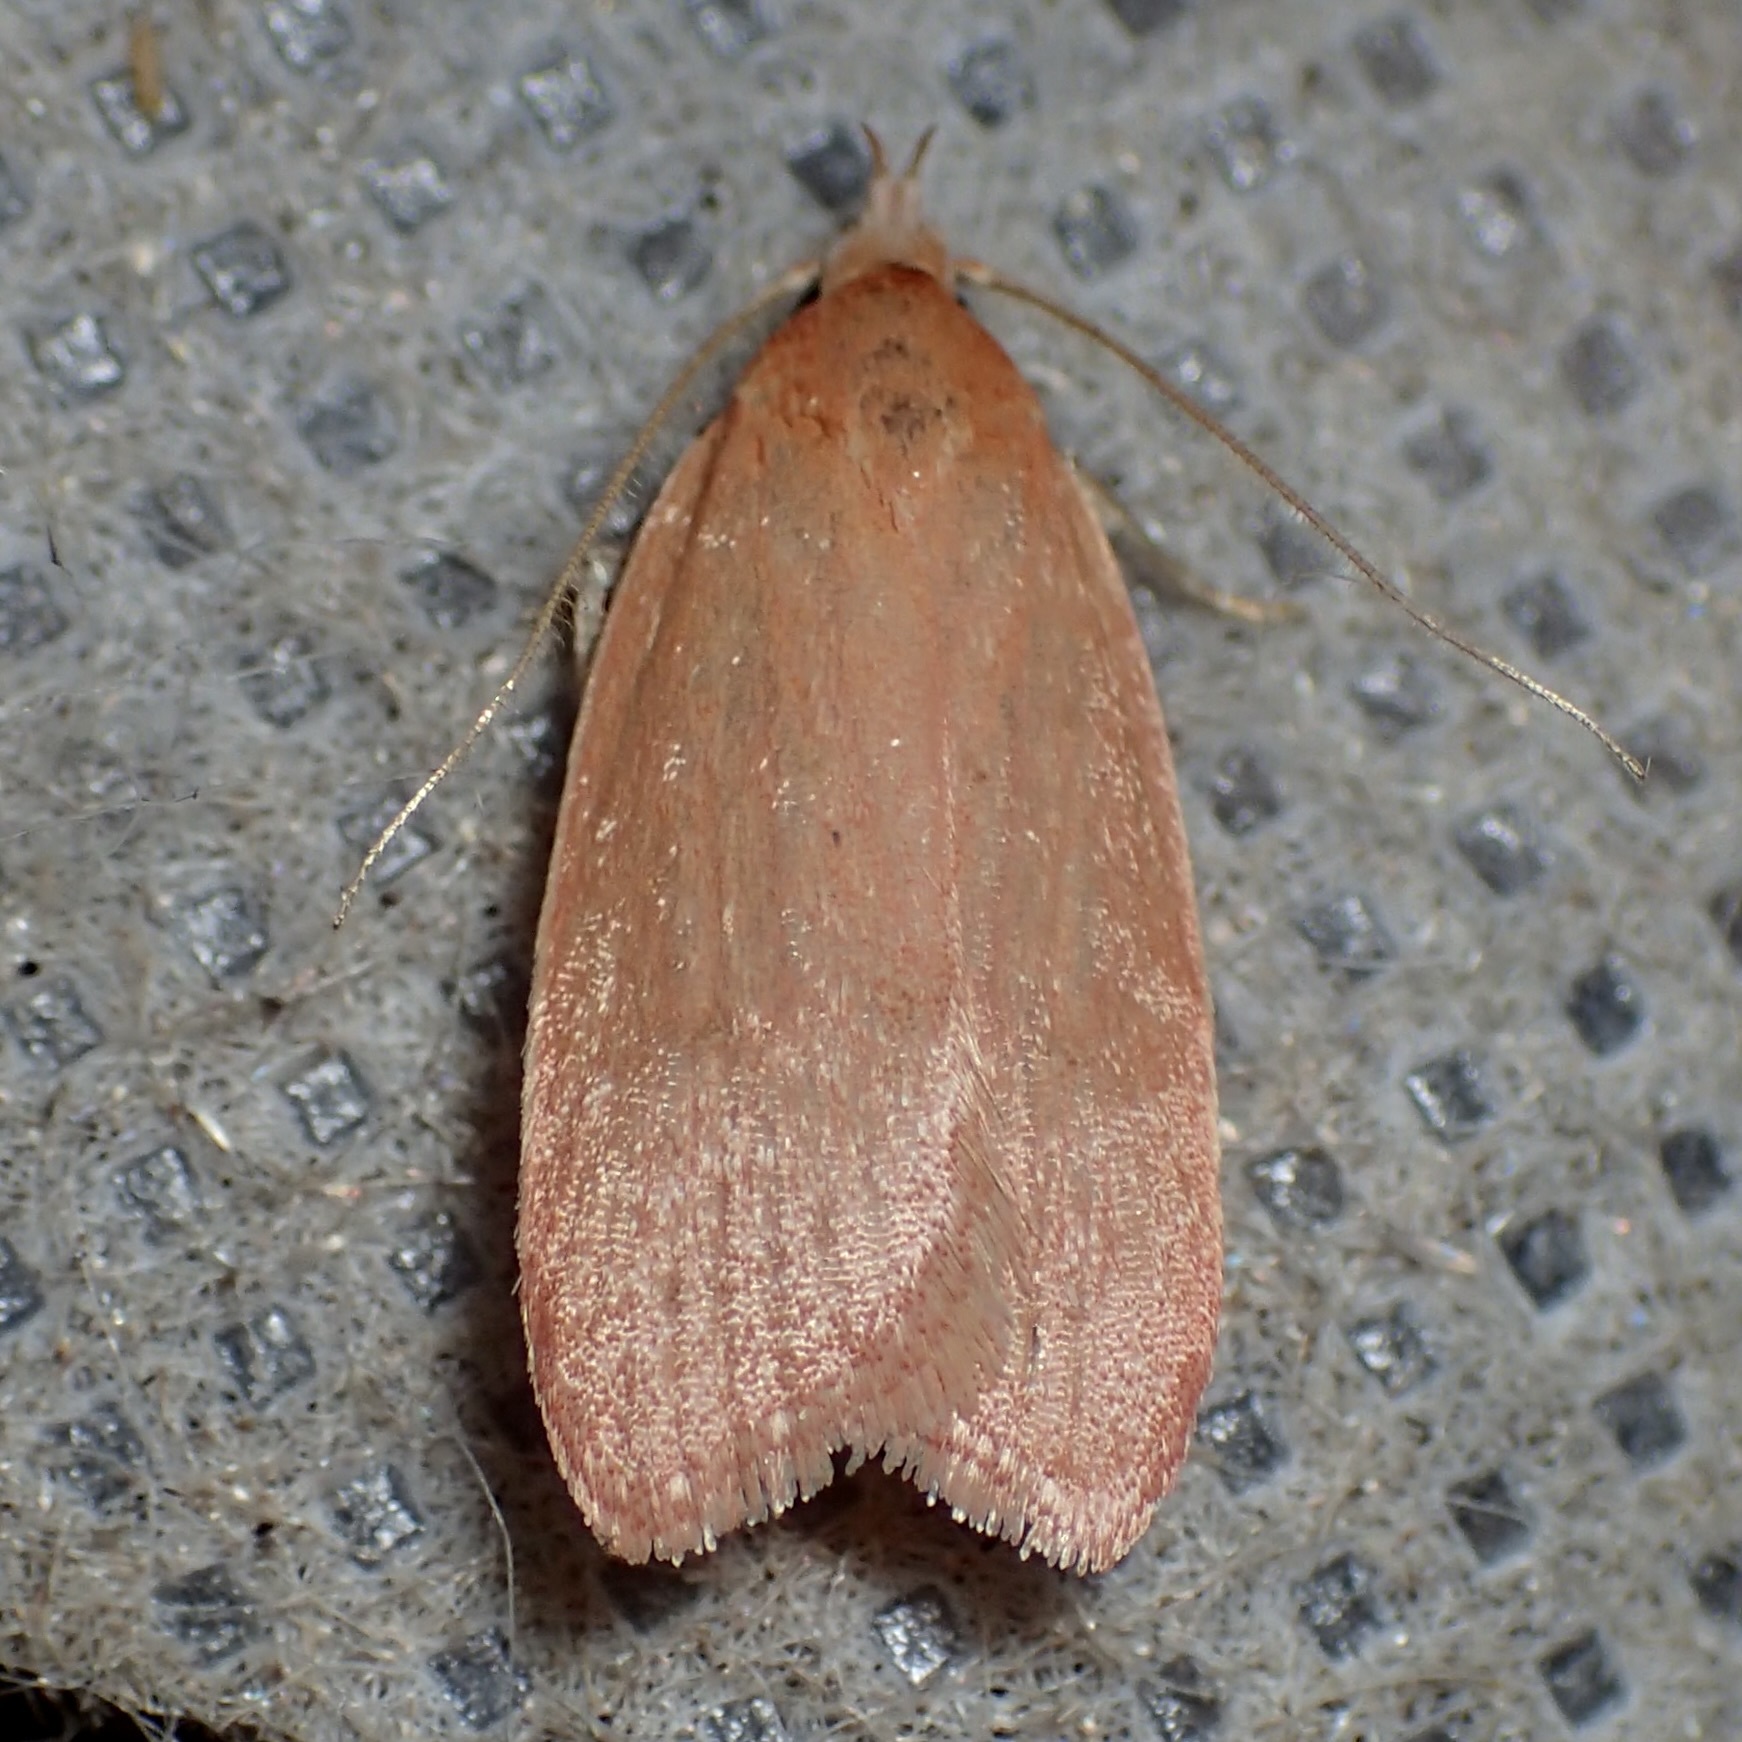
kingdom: Animalia
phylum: Arthropoda
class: Insecta
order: Lepidoptera
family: Depressariidae
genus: Himmacia
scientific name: Himmacia huachucella
